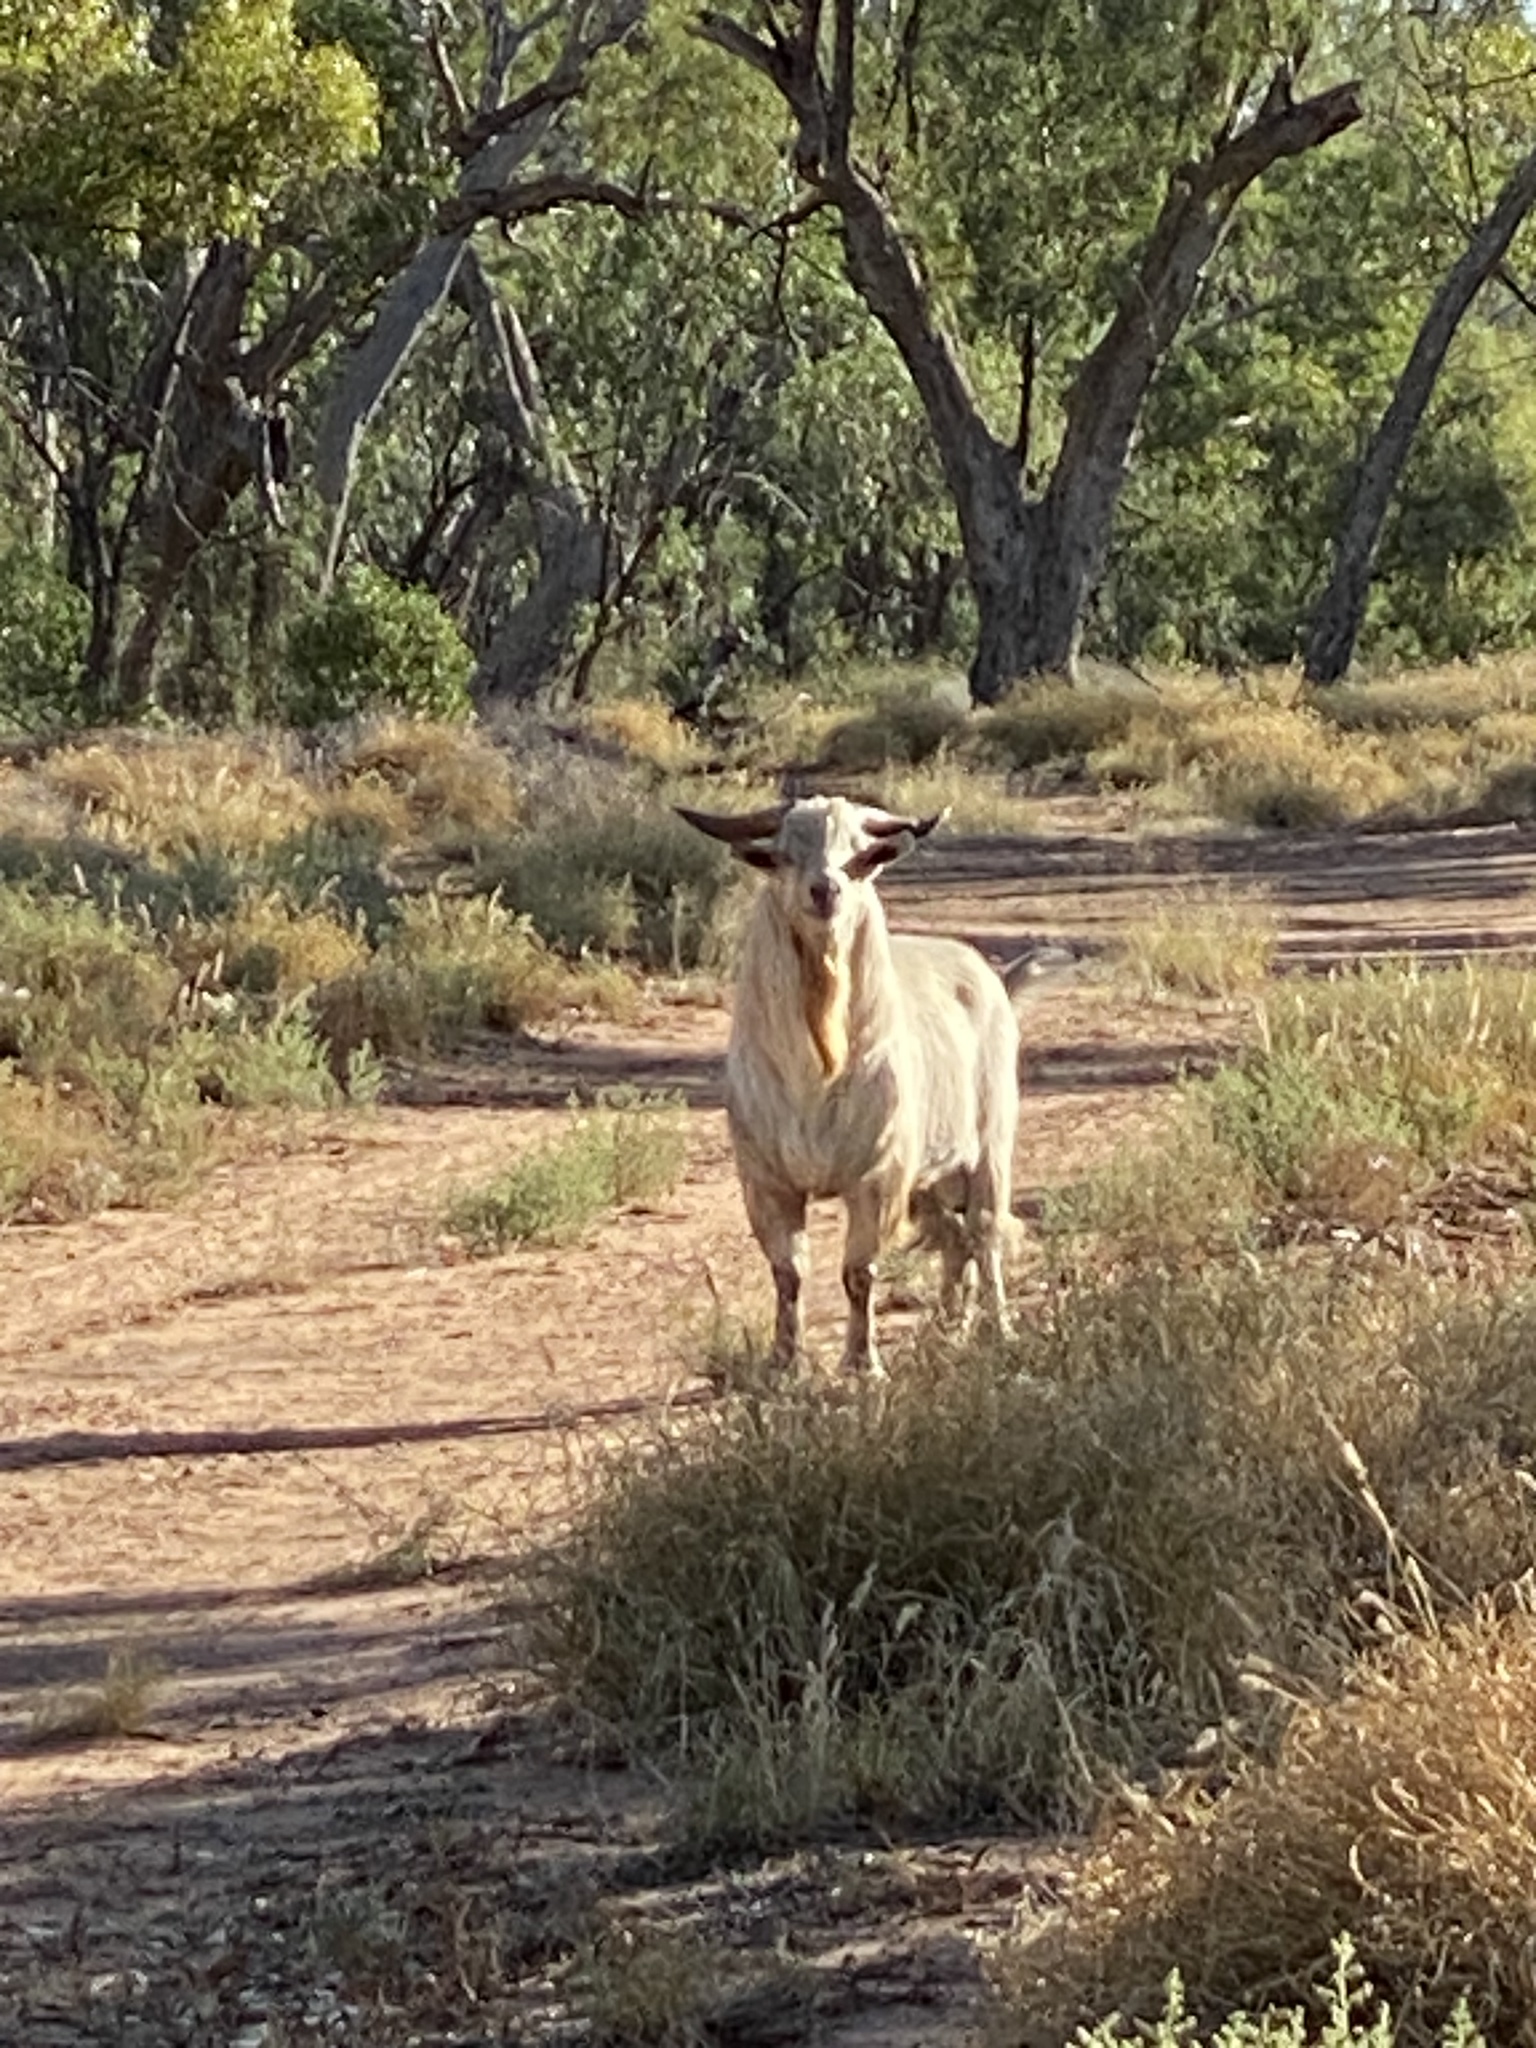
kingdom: Animalia
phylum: Chordata
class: Mammalia
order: Artiodactyla
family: Bovidae
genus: Capra
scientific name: Capra hircus
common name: Domestic goat
